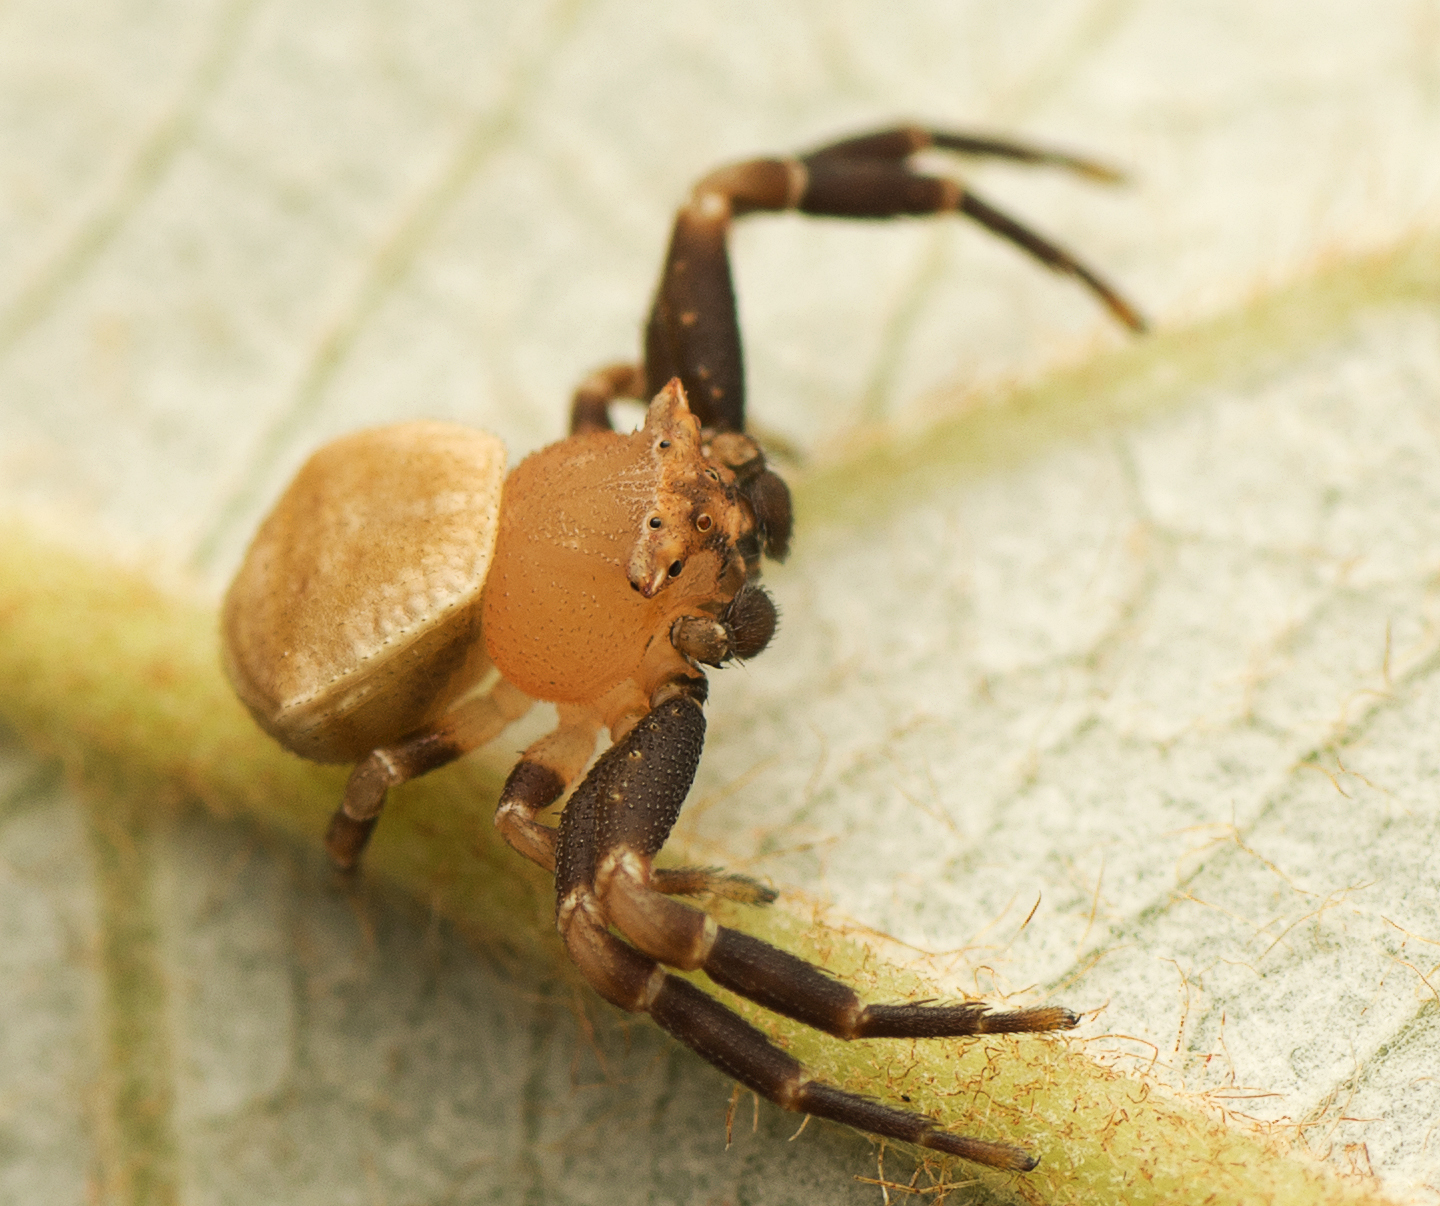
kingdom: Animalia
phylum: Arthropoda
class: Arachnida
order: Araneae
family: Thomisidae
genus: Thomisus
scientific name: Thomisus spectabilis
